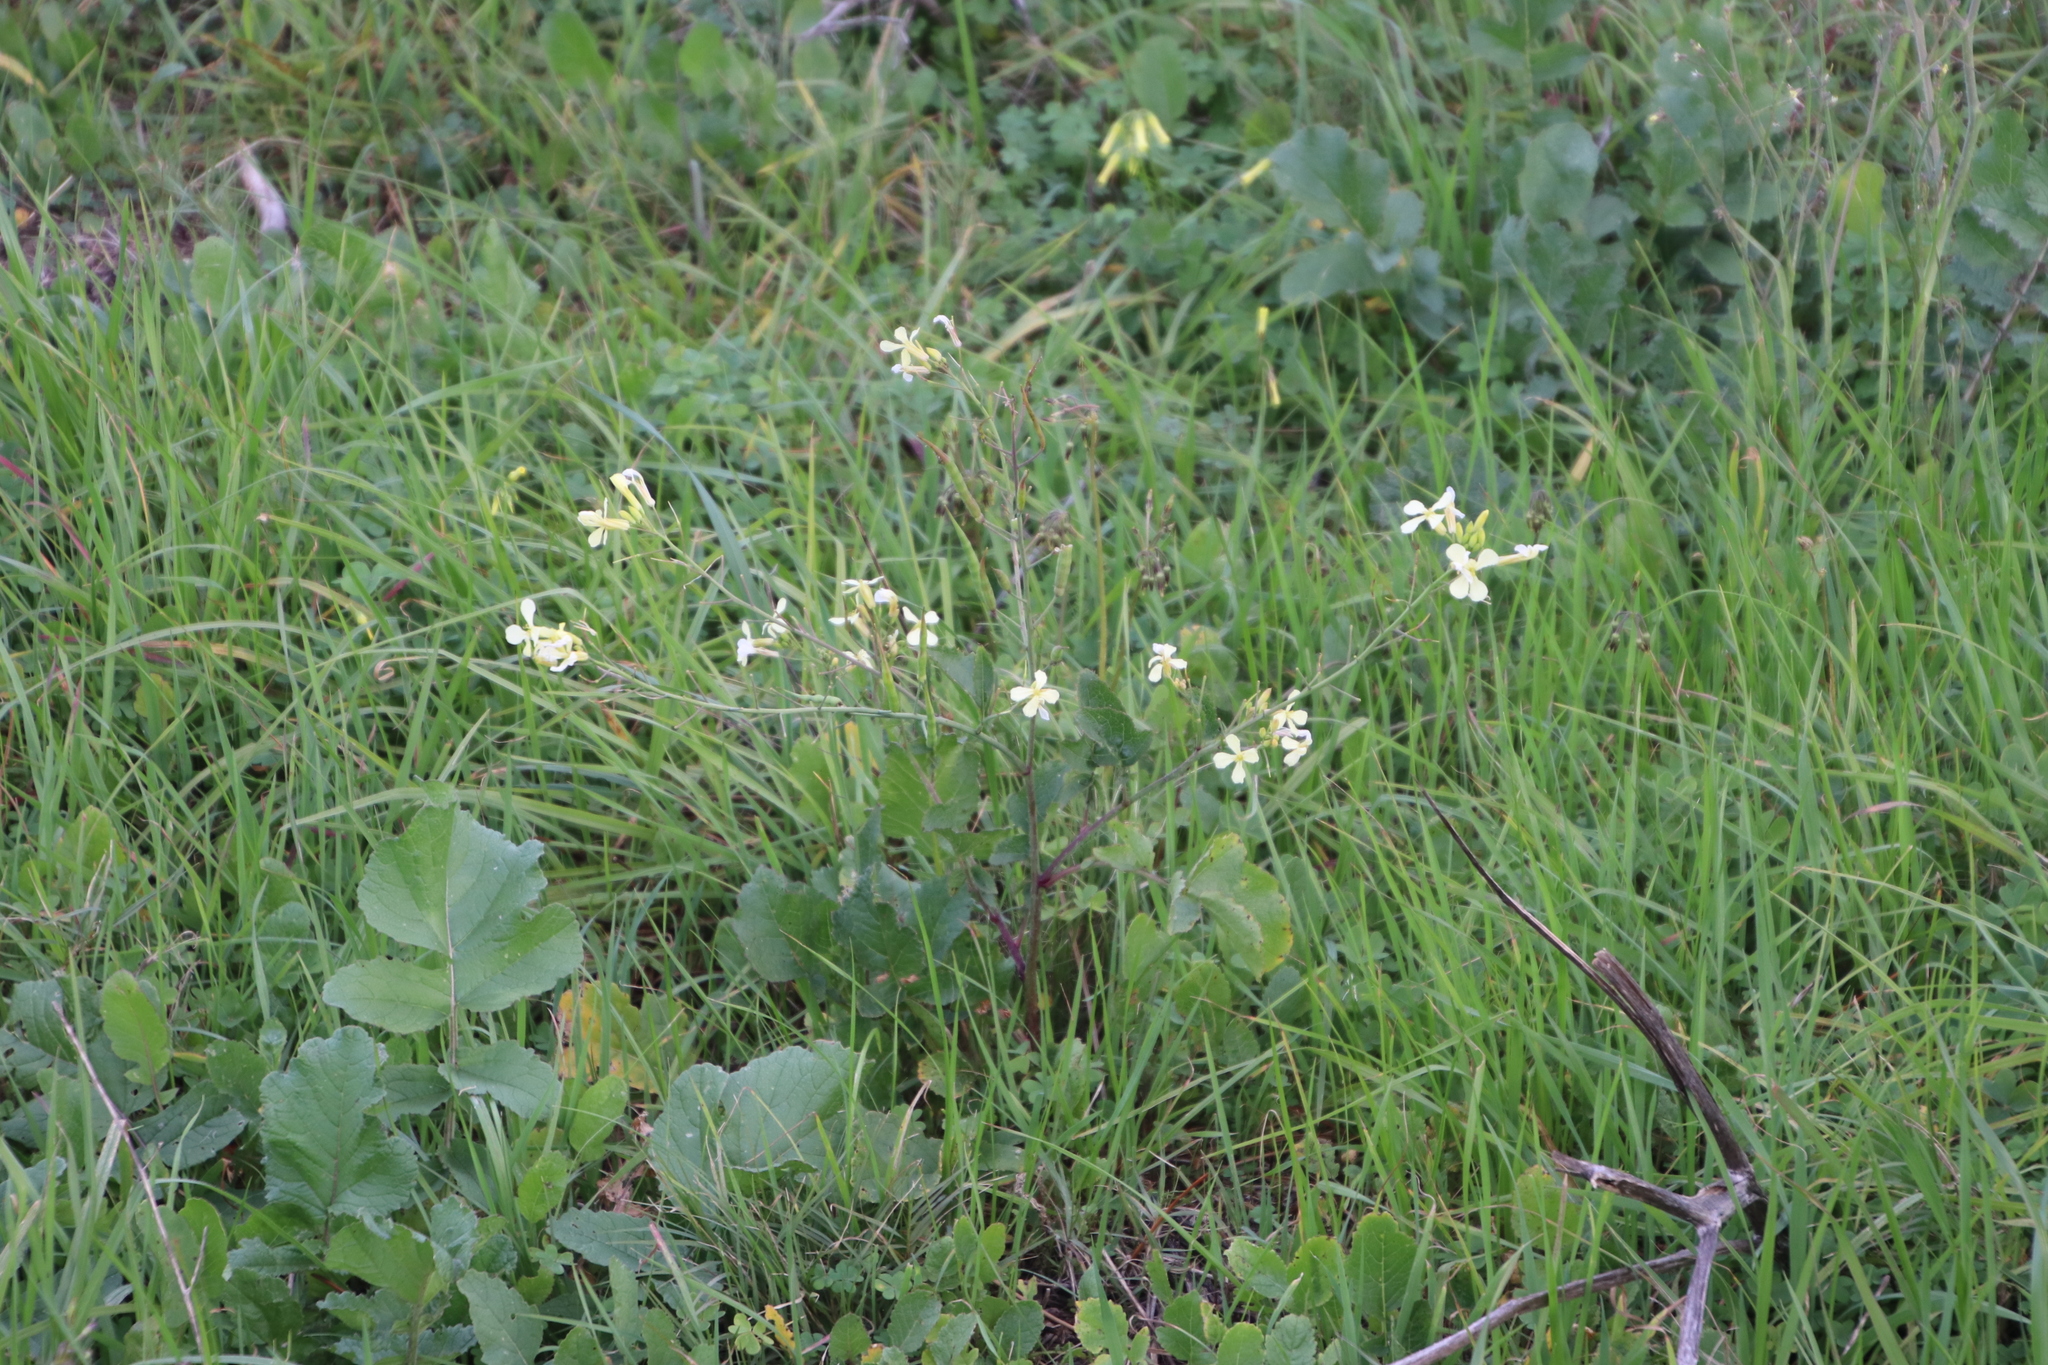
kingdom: Plantae
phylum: Tracheophyta
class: Magnoliopsida
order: Brassicales
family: Brassicaceae
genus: Raphanus
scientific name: Raphanus raphanistrum
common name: Wild radish
